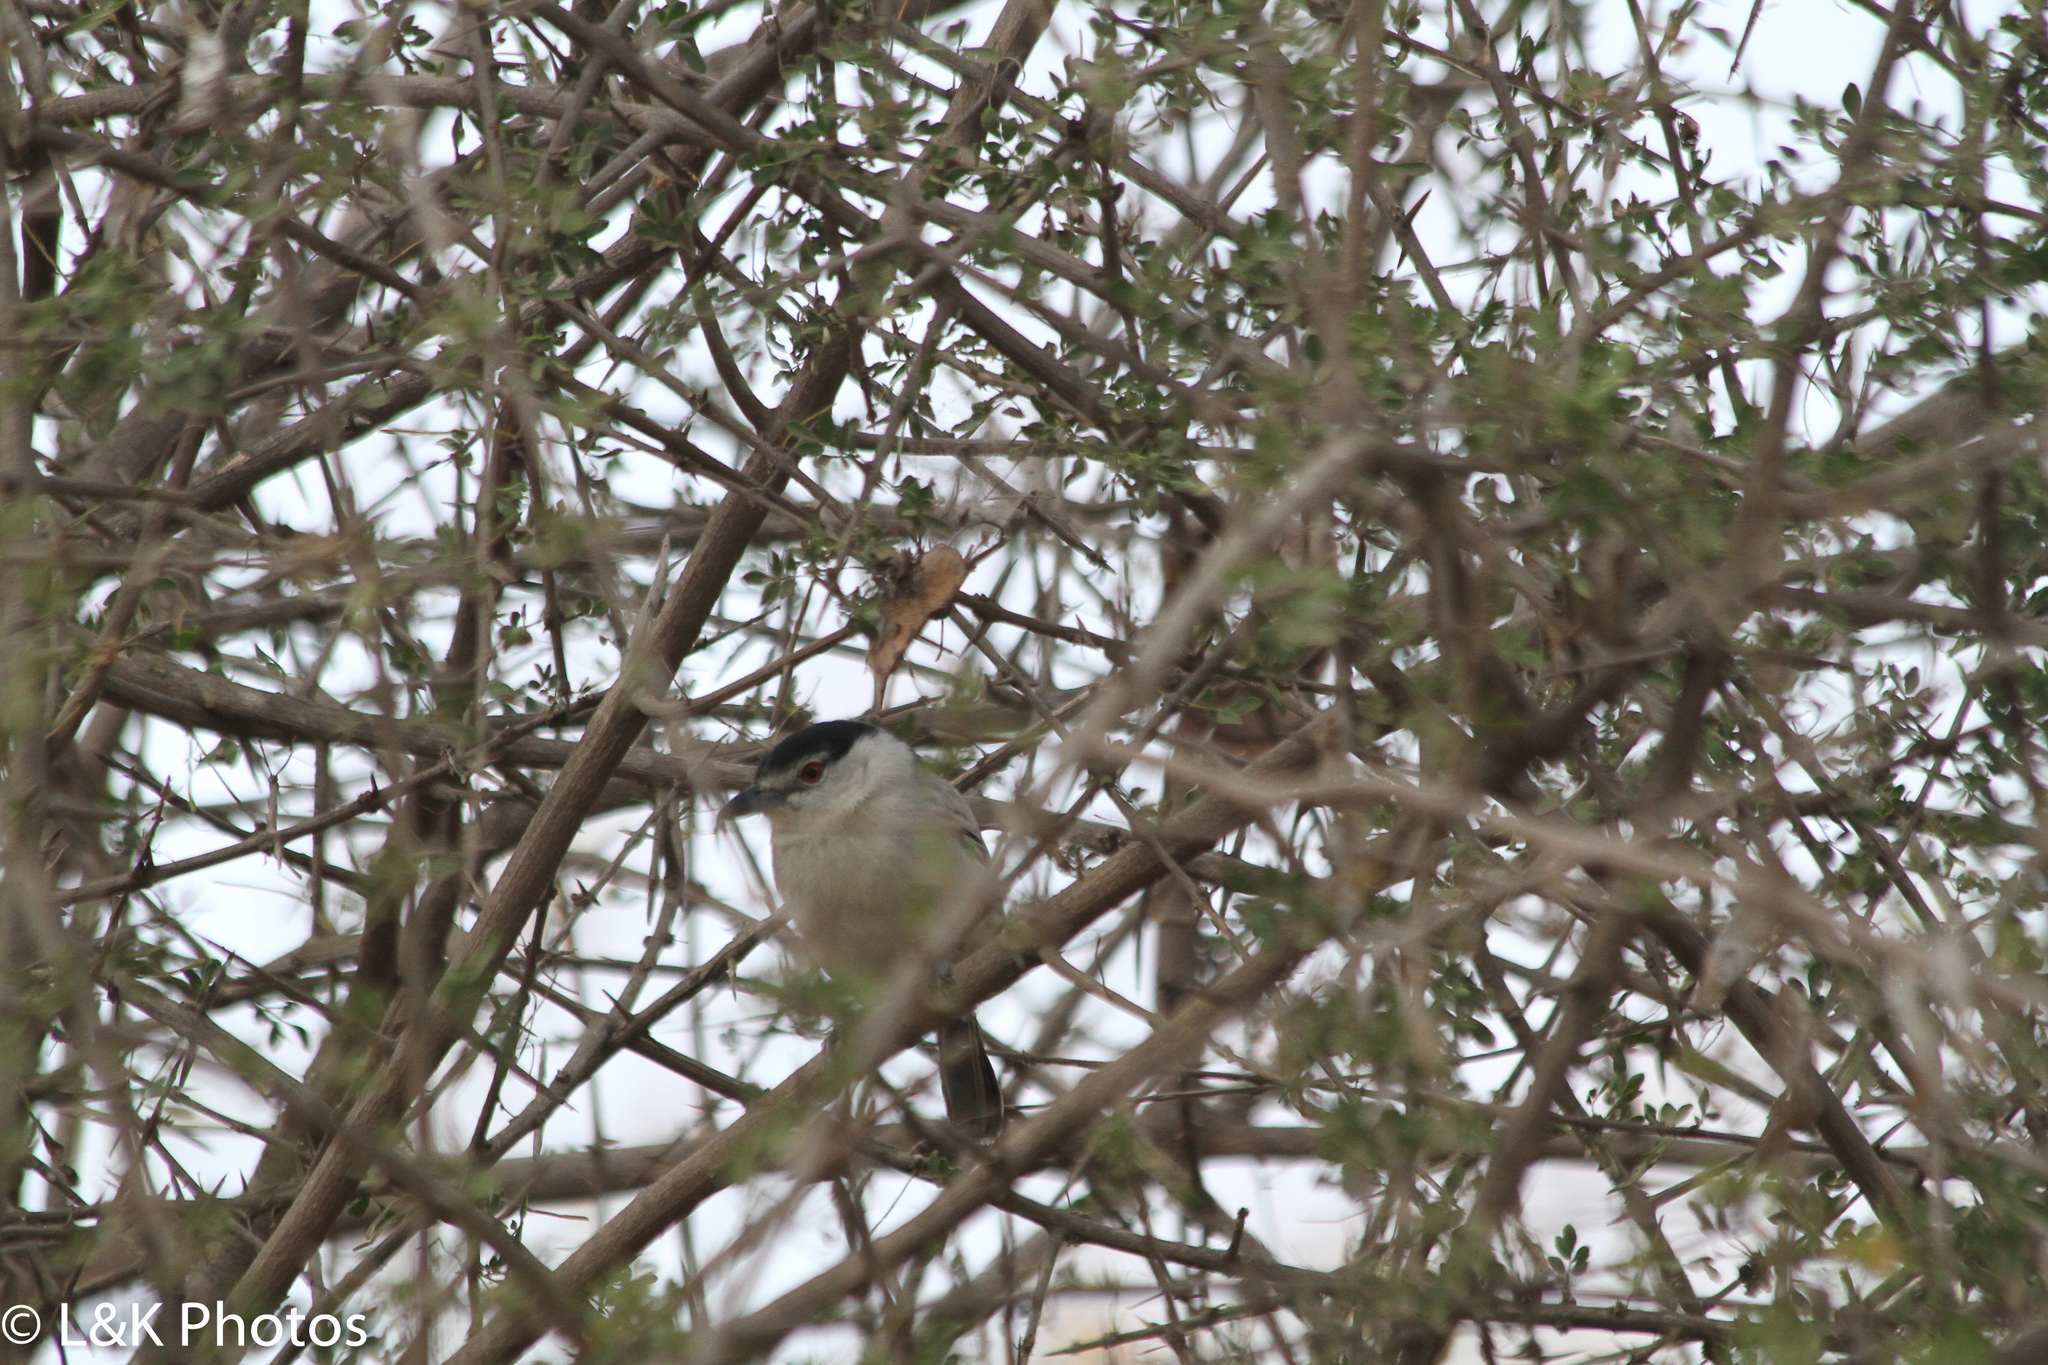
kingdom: Animalia
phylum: Chordata
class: Aves
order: Passeriformes
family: Malaconotidae
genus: Dryoscopus
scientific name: Dryoscopus cubla
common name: Black-backed puffback
